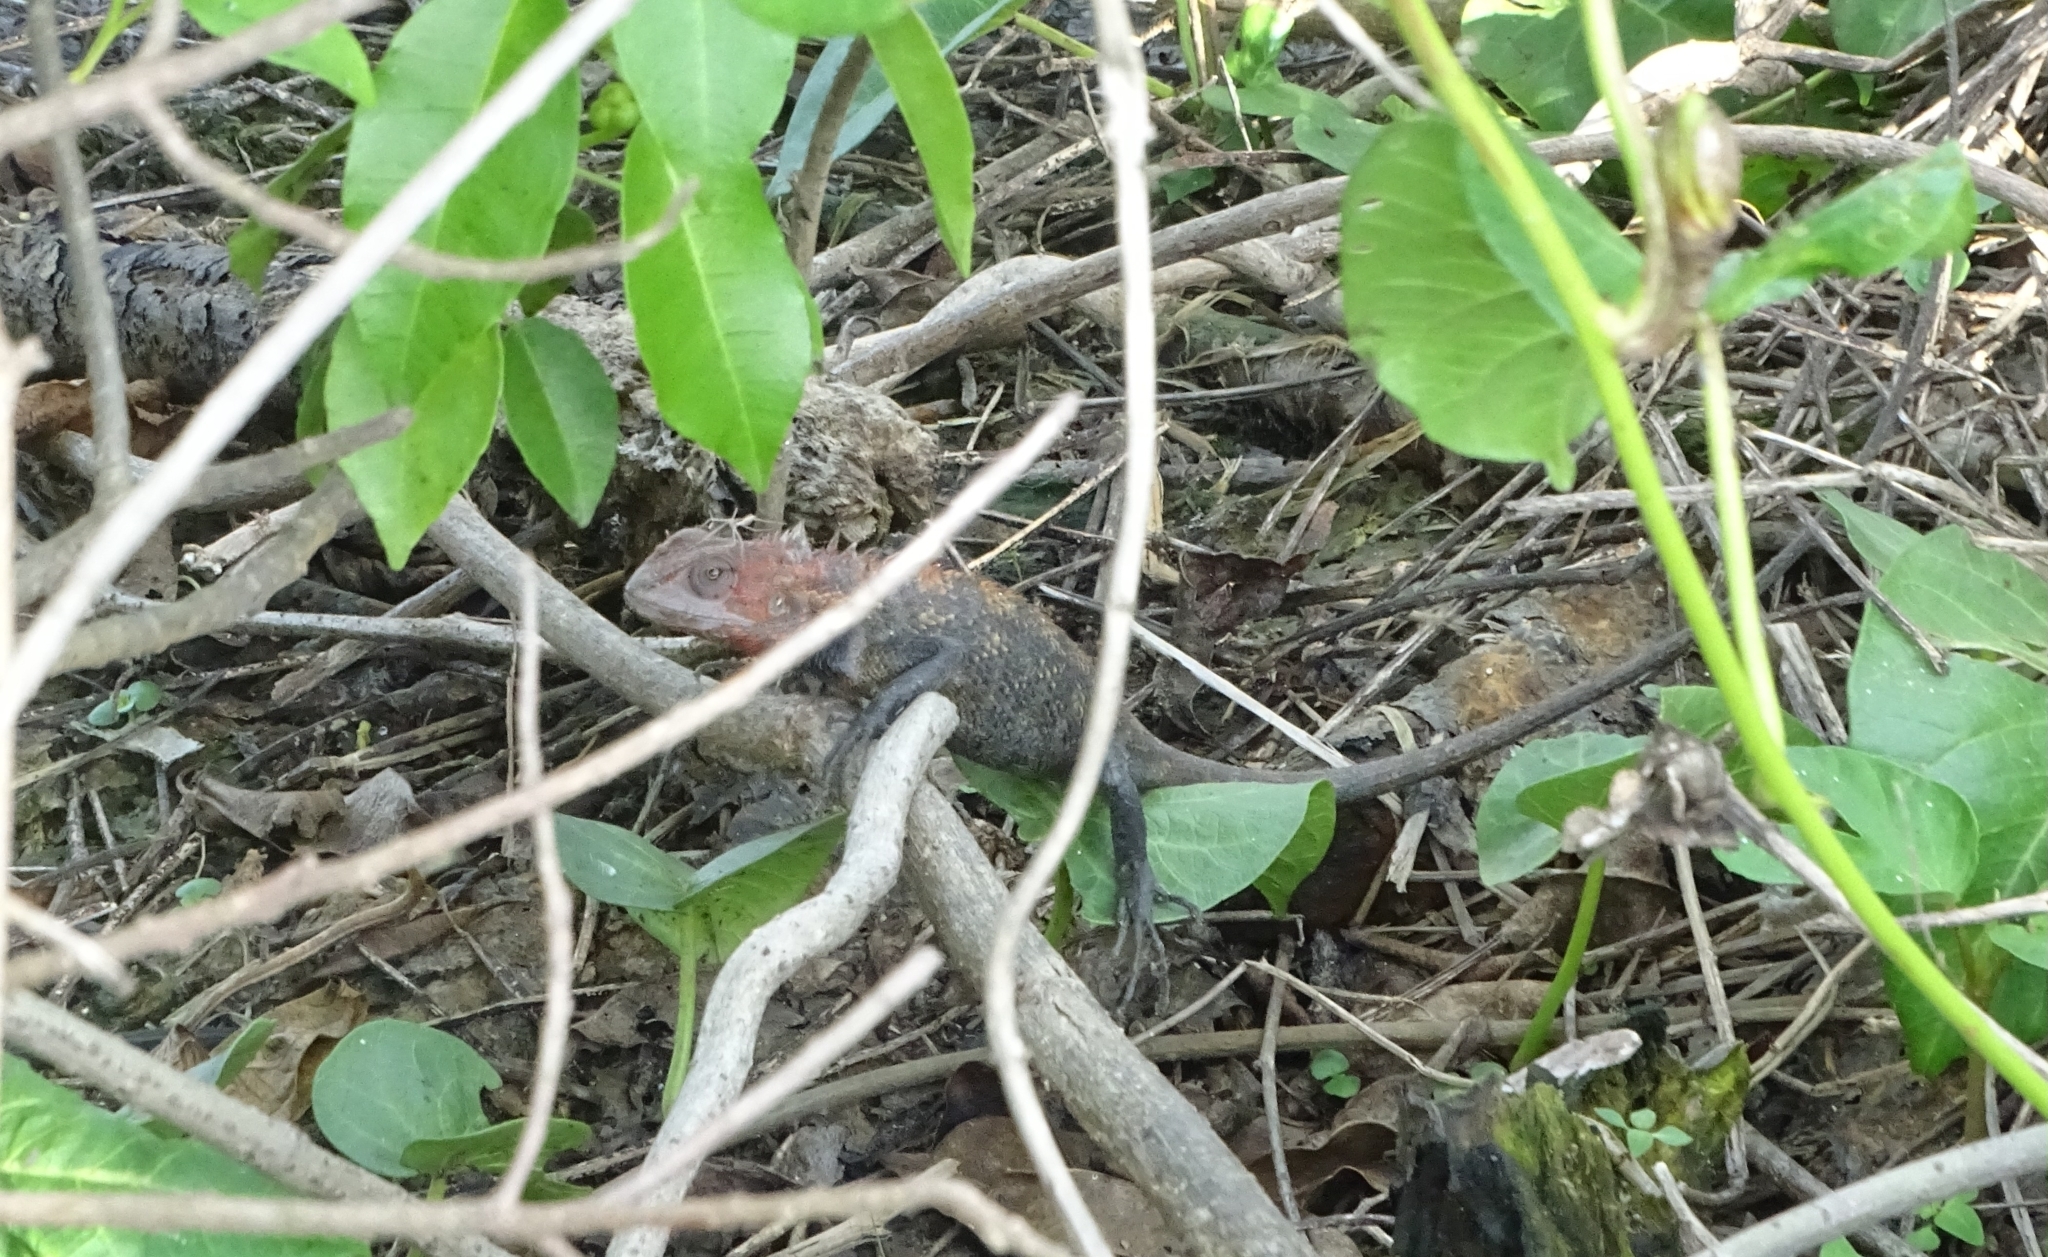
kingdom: Animalia
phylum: Chordata
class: Squamata
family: Agamidae
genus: Calotes
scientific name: Calotes versicolor
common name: Oriental garden lizard
